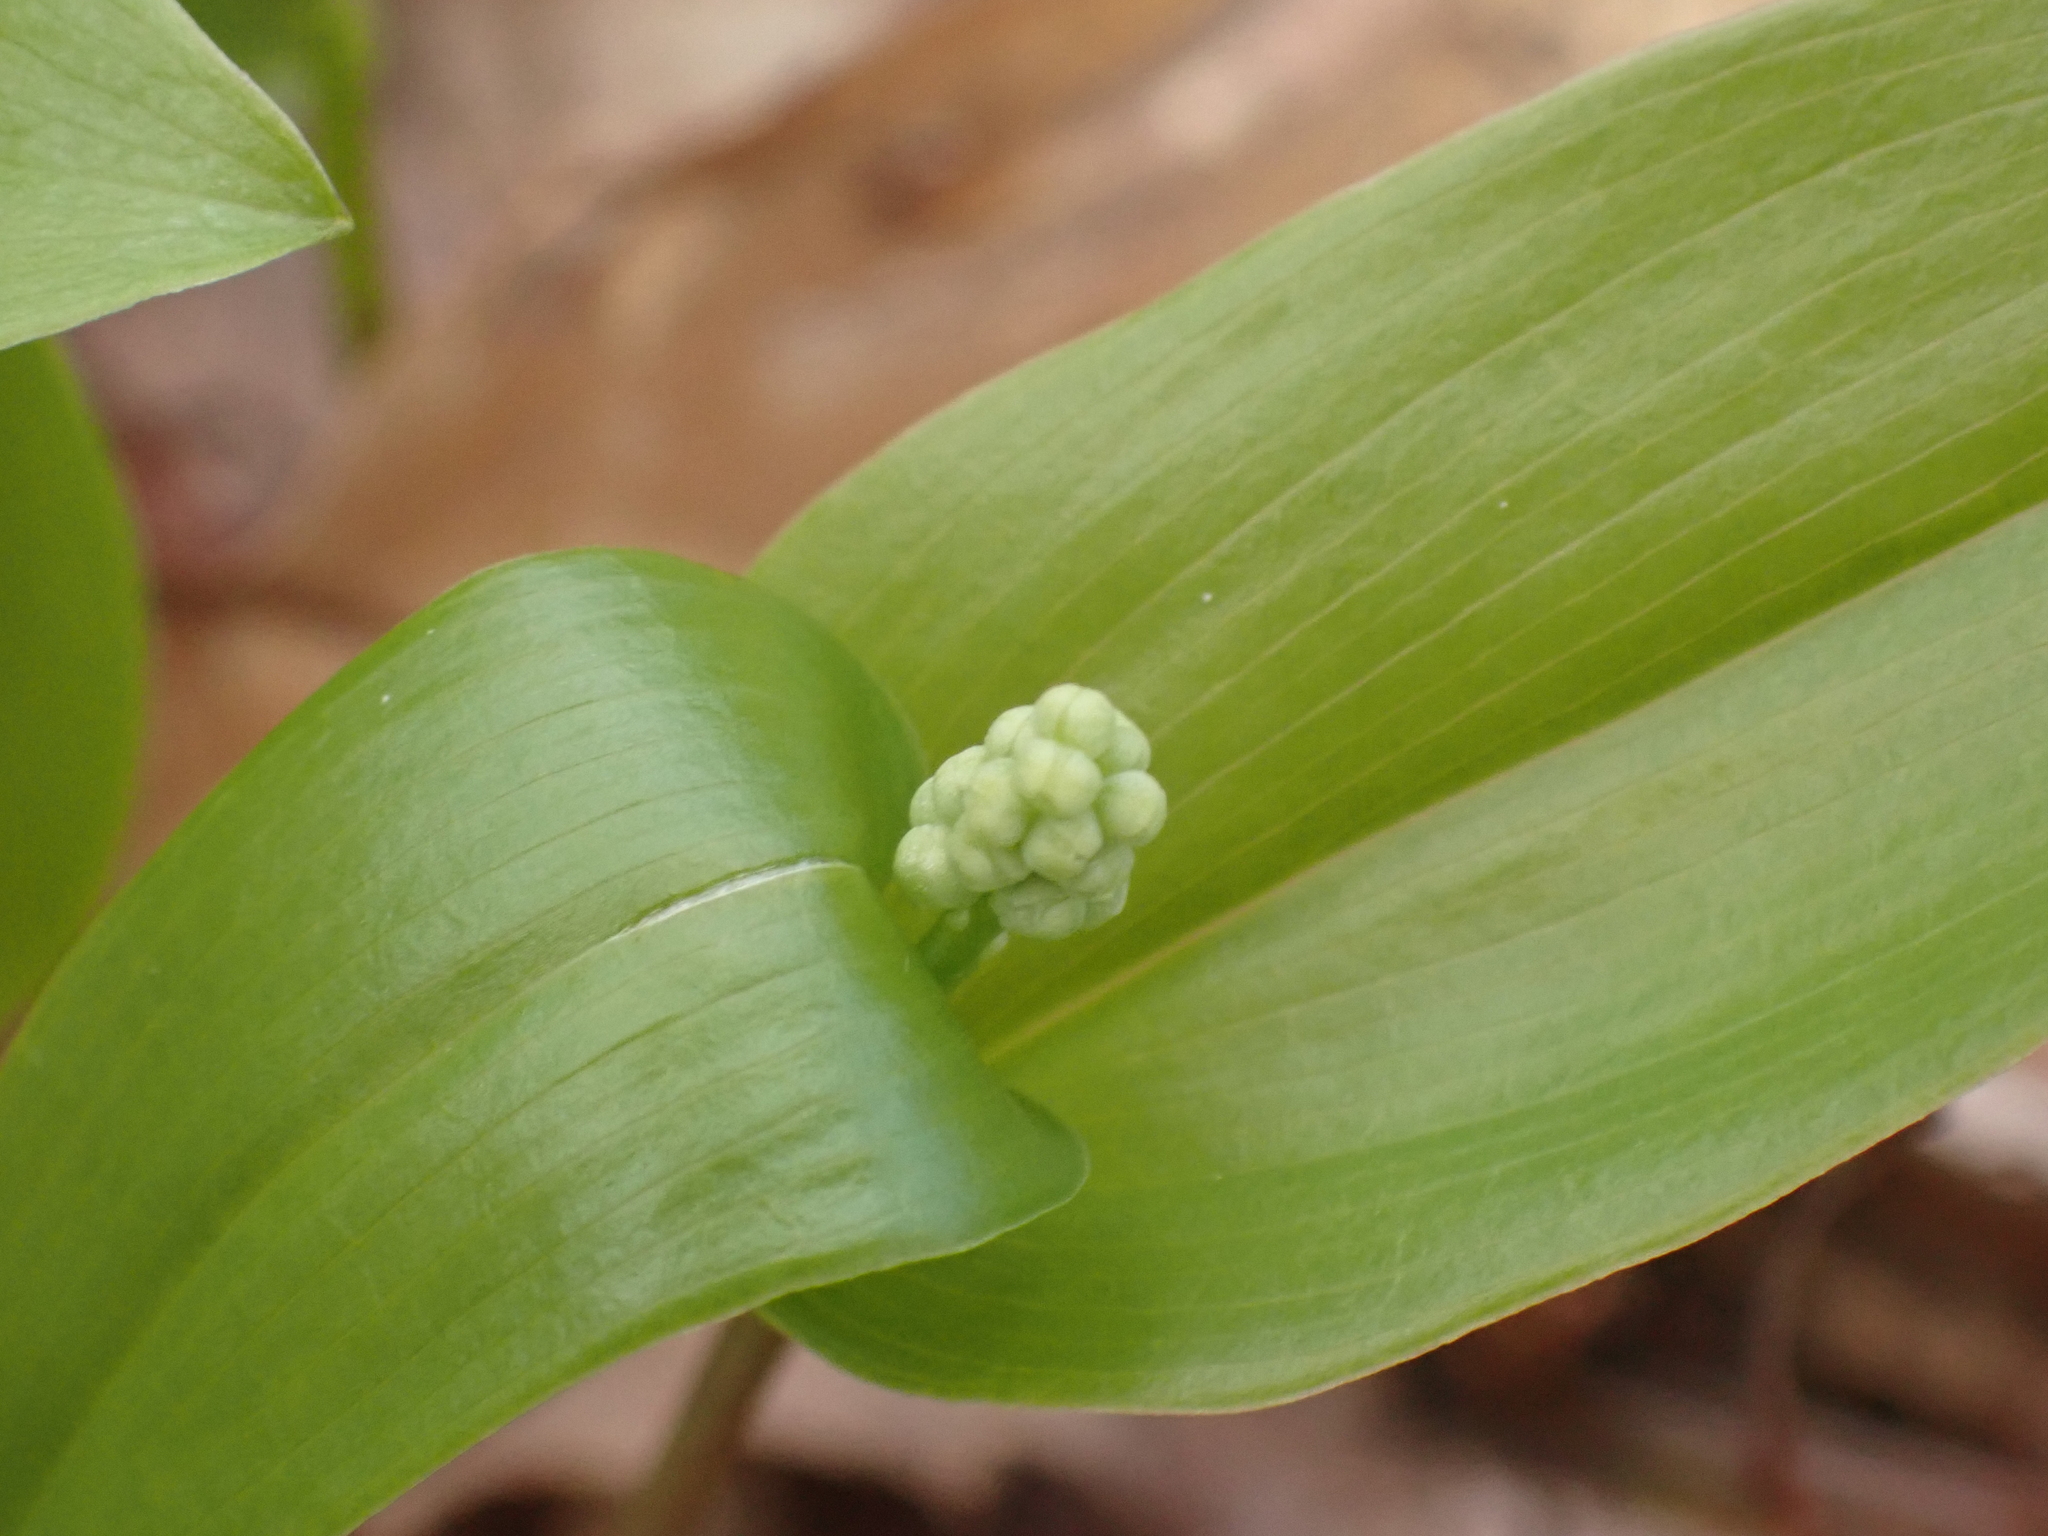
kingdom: Plantae
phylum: Tracheophyta
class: Liliopsida
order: Asparagales
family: Asparagaceae
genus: Maianthemum
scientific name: Maianthemum canadense
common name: False lily-of-the-valley
